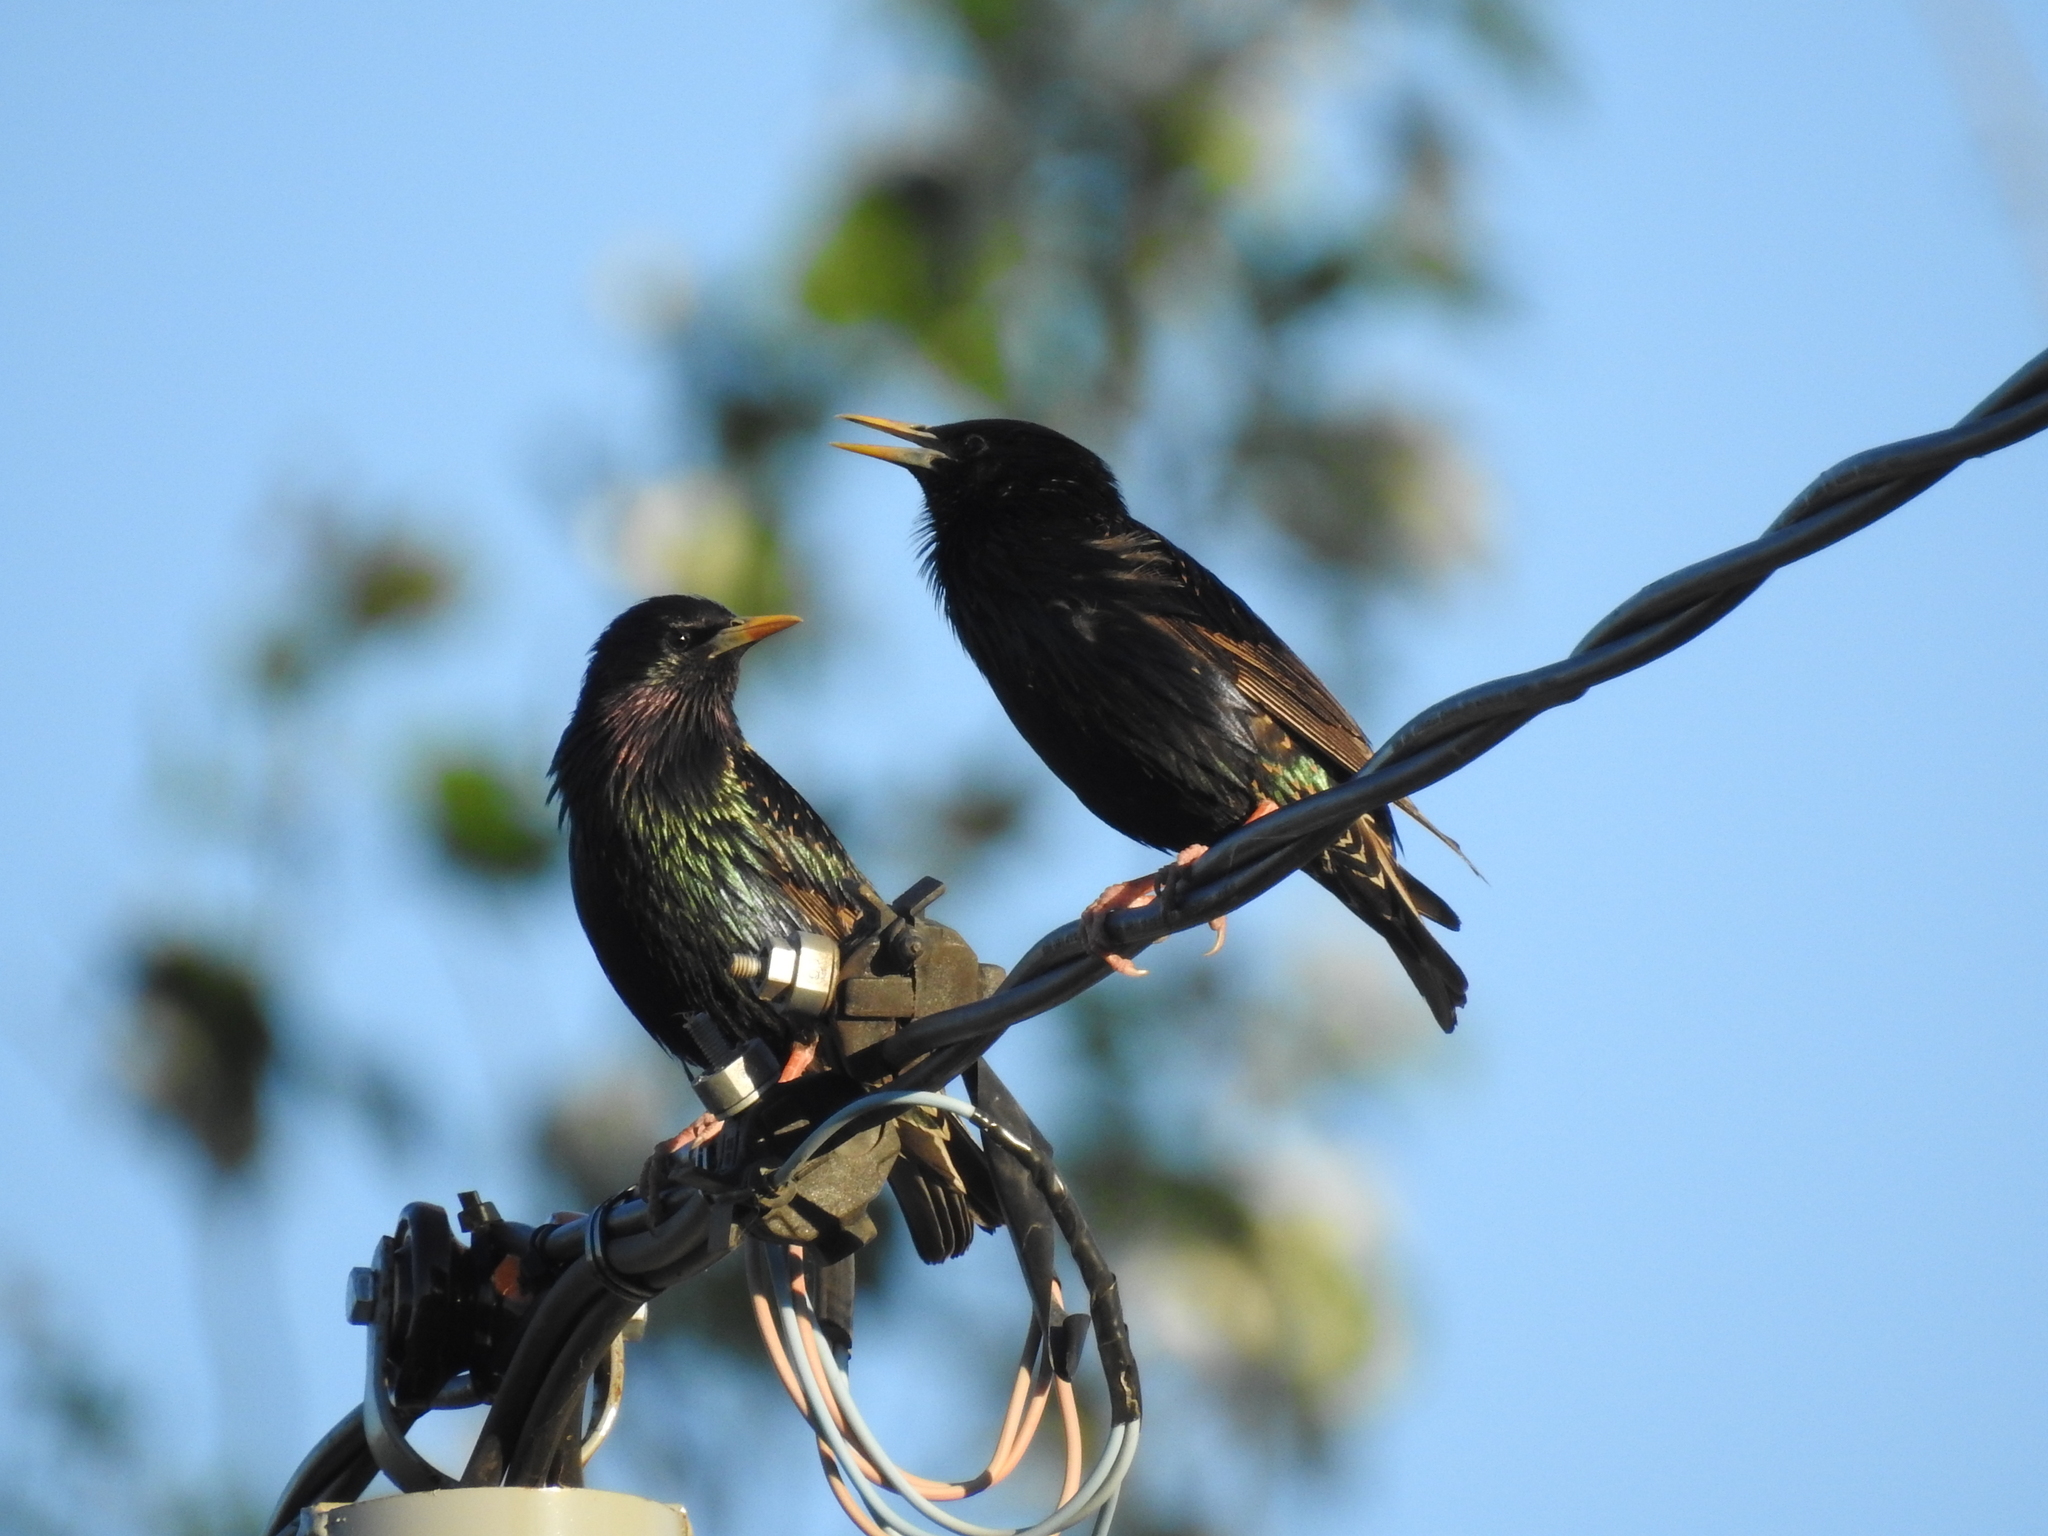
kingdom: Animalia
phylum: Chordata
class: Aves
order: Passeriformes
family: Sturnidae
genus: Sturnus
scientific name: Sturnus vulgaris
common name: Common starling
